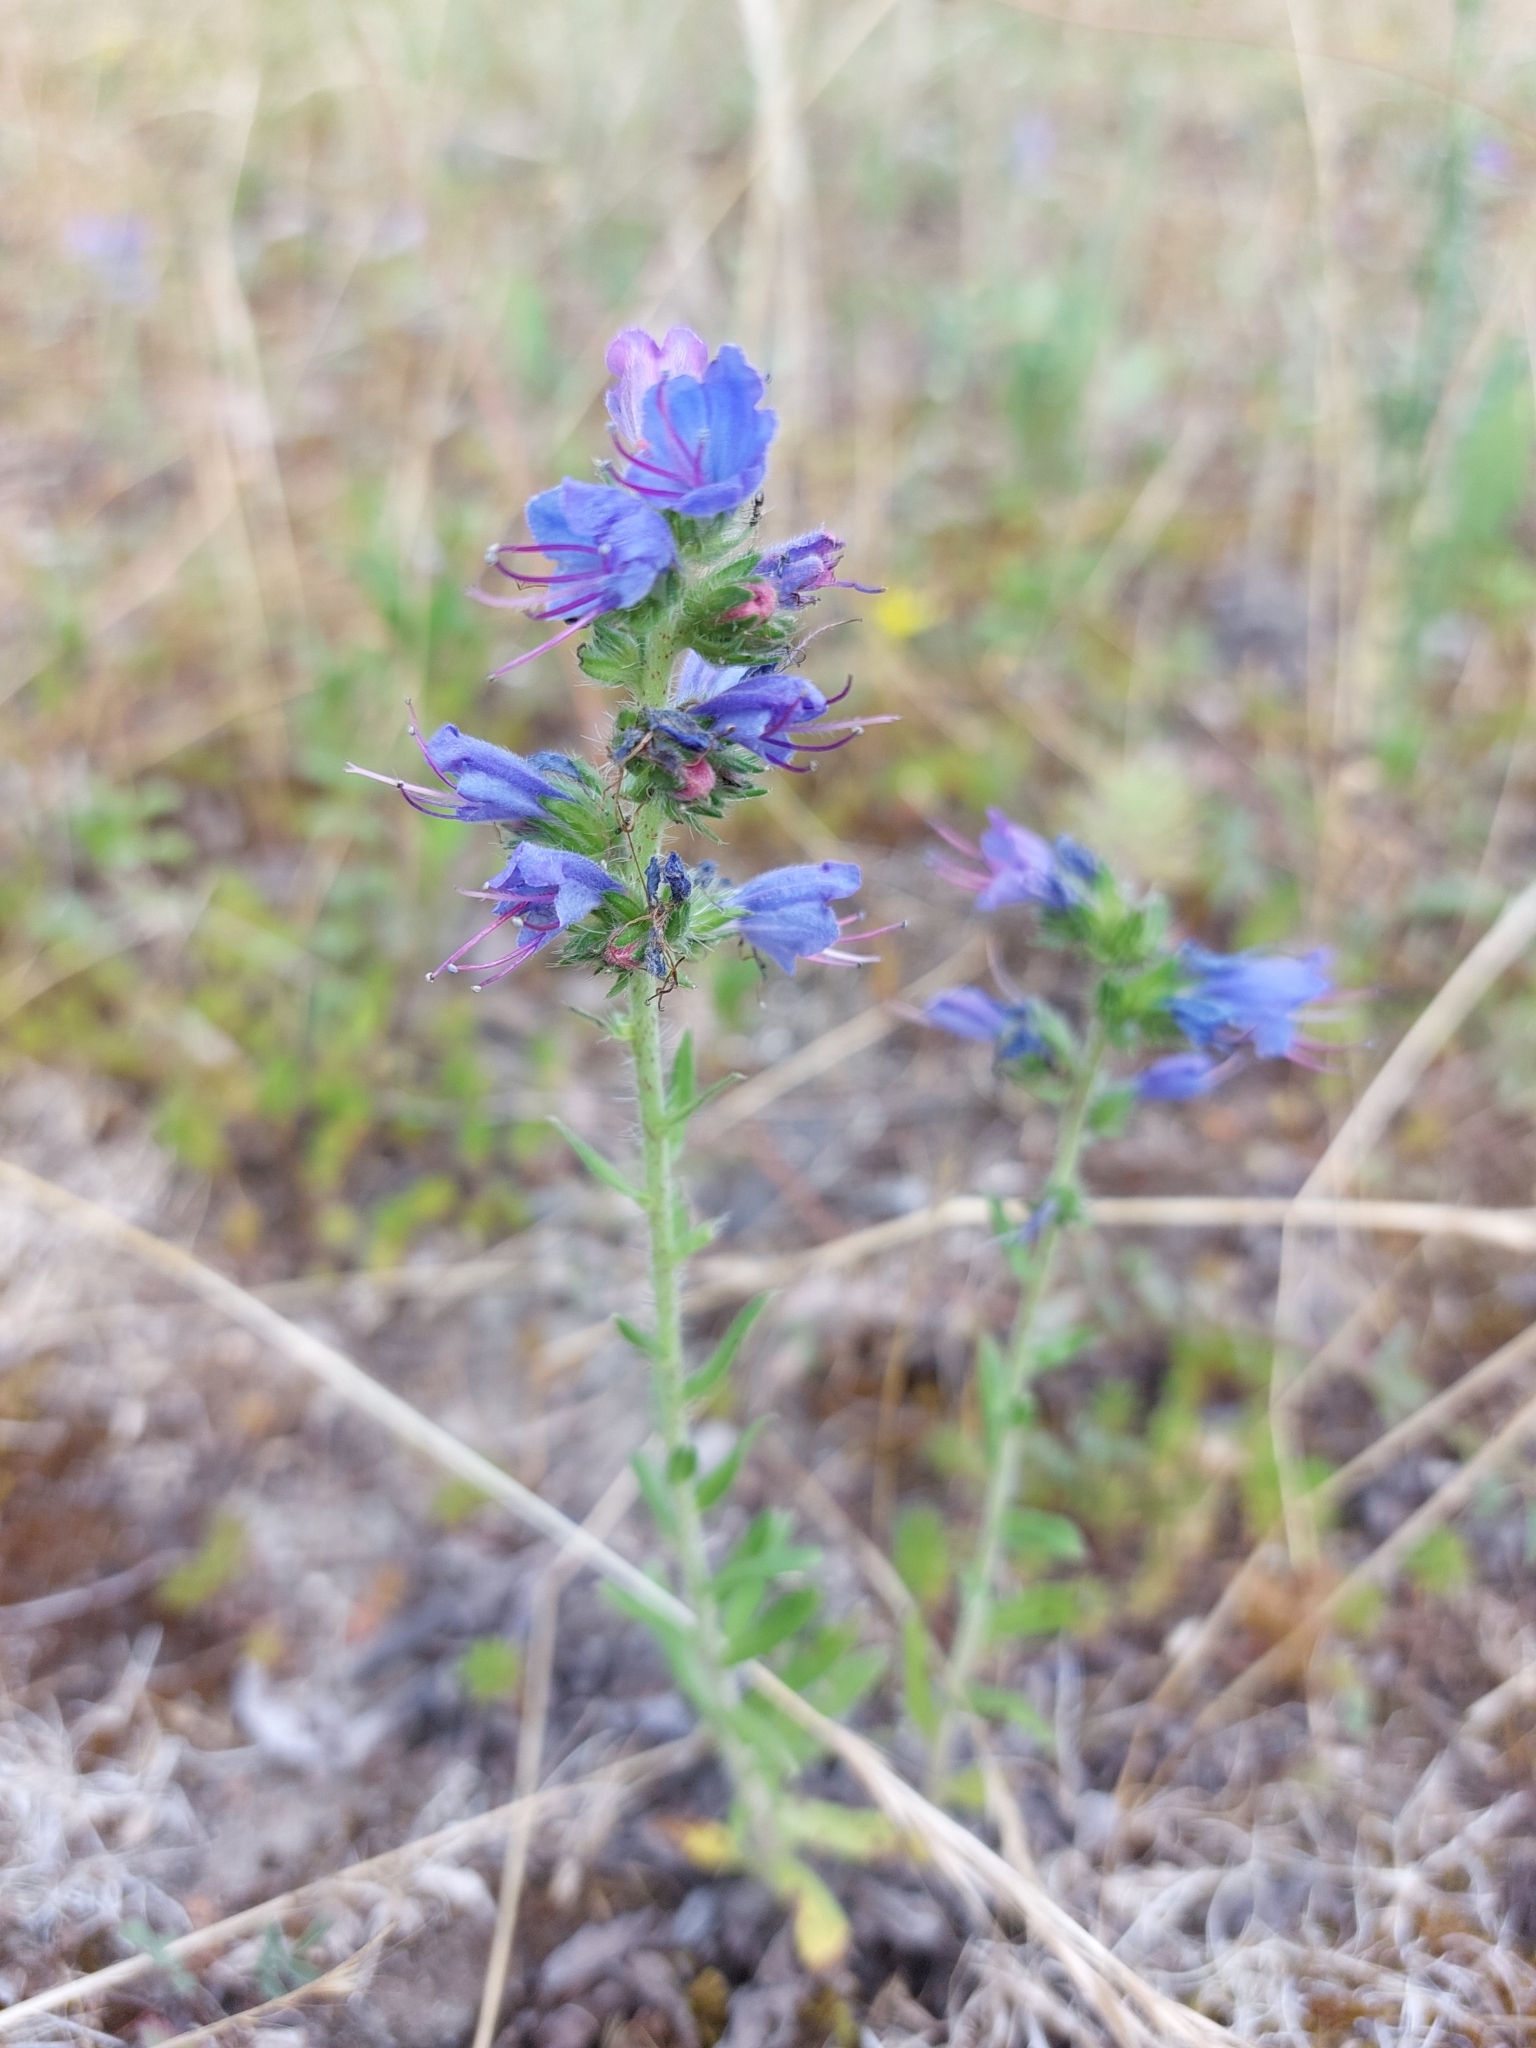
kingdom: Plantae
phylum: Tracheophyta
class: Magnoliopsida
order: Boraginales
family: Boraginaceae
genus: Echium
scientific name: Echium vulgare
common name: Common viper's bugloss
